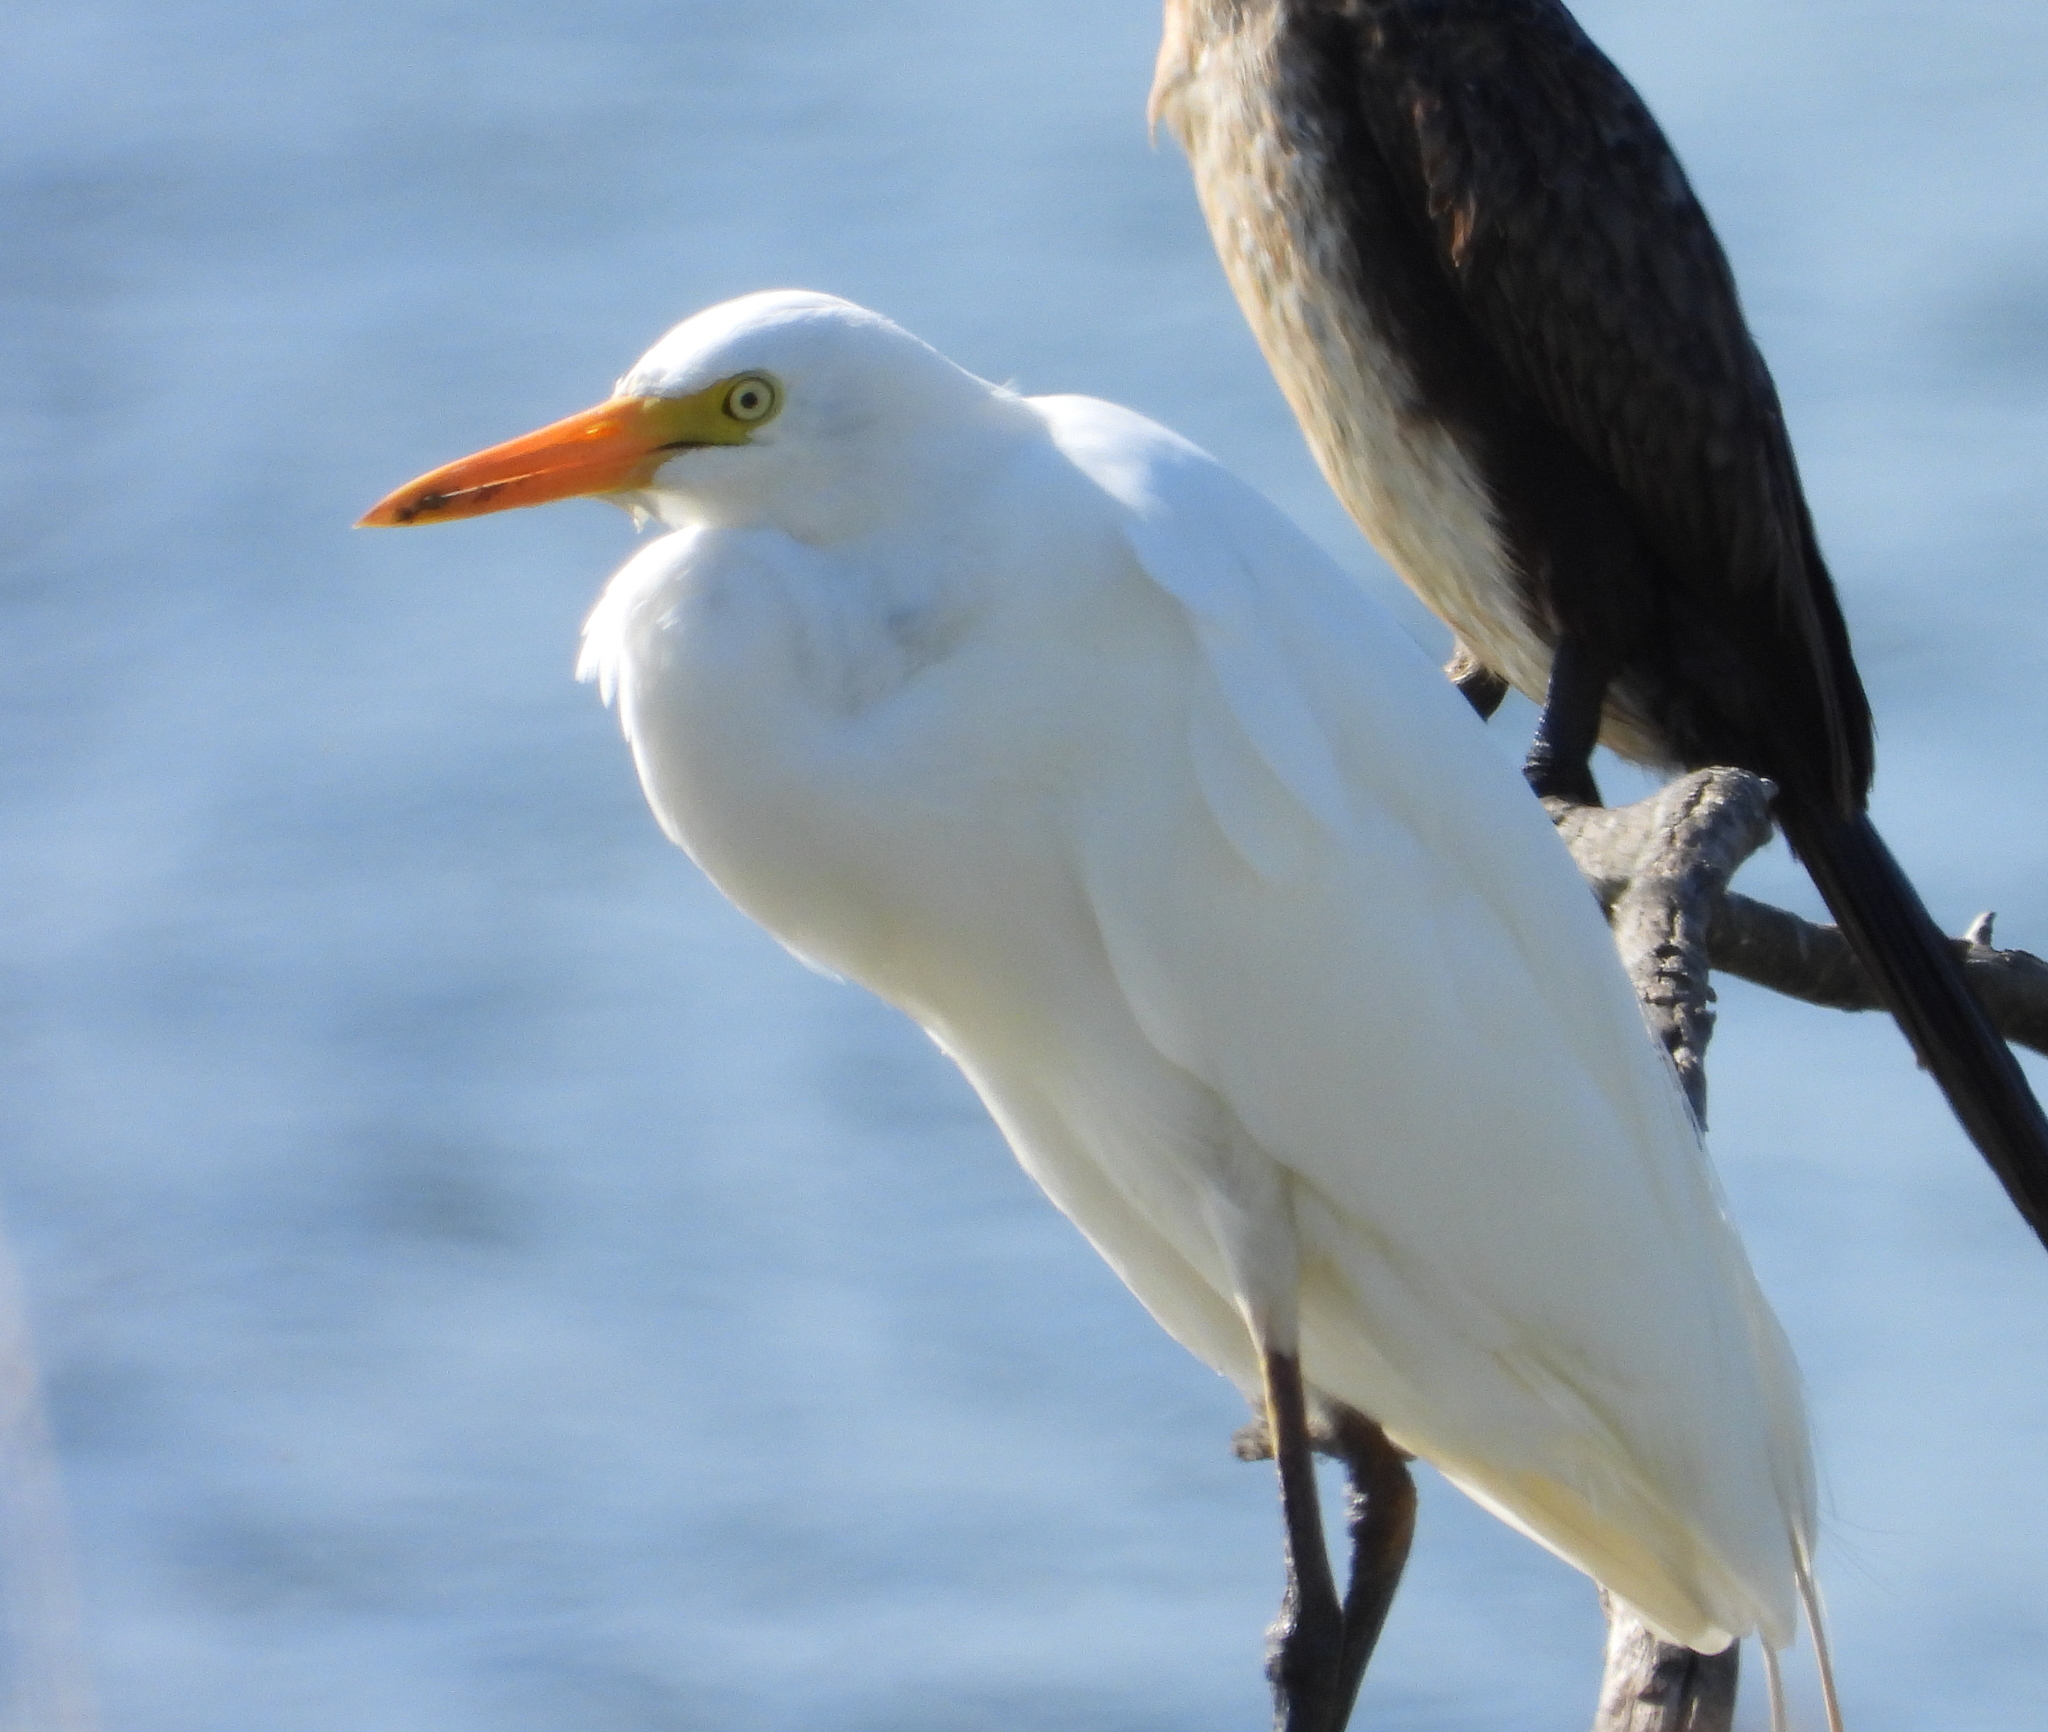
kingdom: Animalia
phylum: Chordata
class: Aves
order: Pelecaniformes
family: Ardeidae
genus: Bubulcus
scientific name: Bubulcus ibis
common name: Cattle egret
